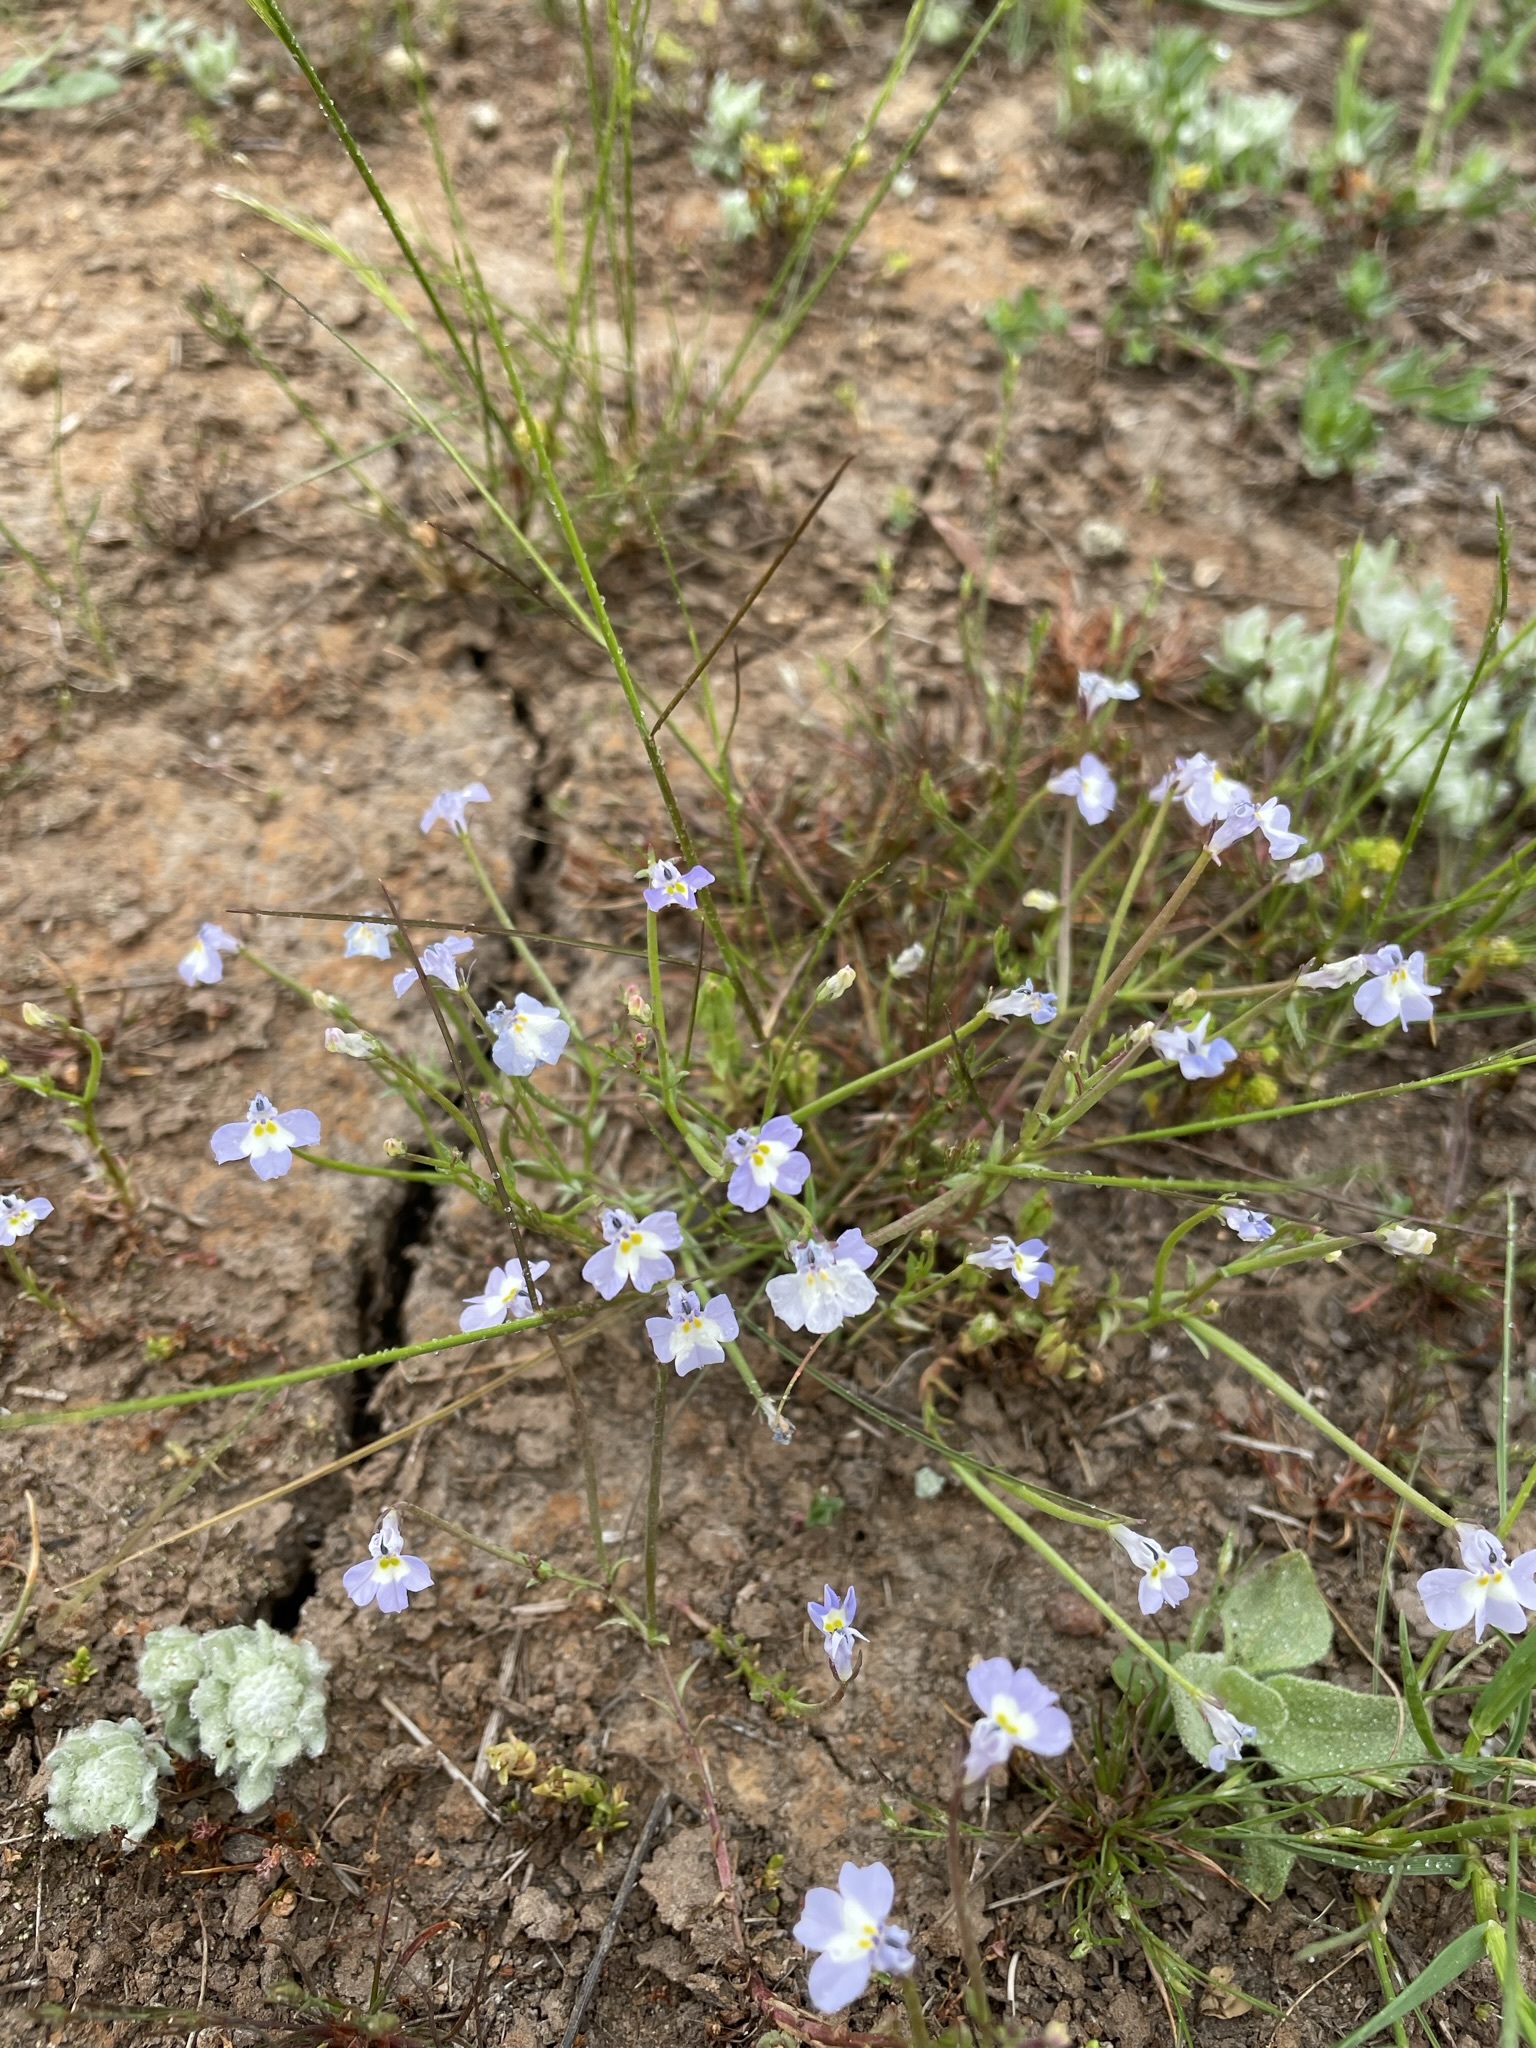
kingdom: Plantae
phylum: Tracheophyta
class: Magnoliopsida
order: Asterales
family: Campanulaceae
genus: Downingia
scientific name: Downingia ornatissima
